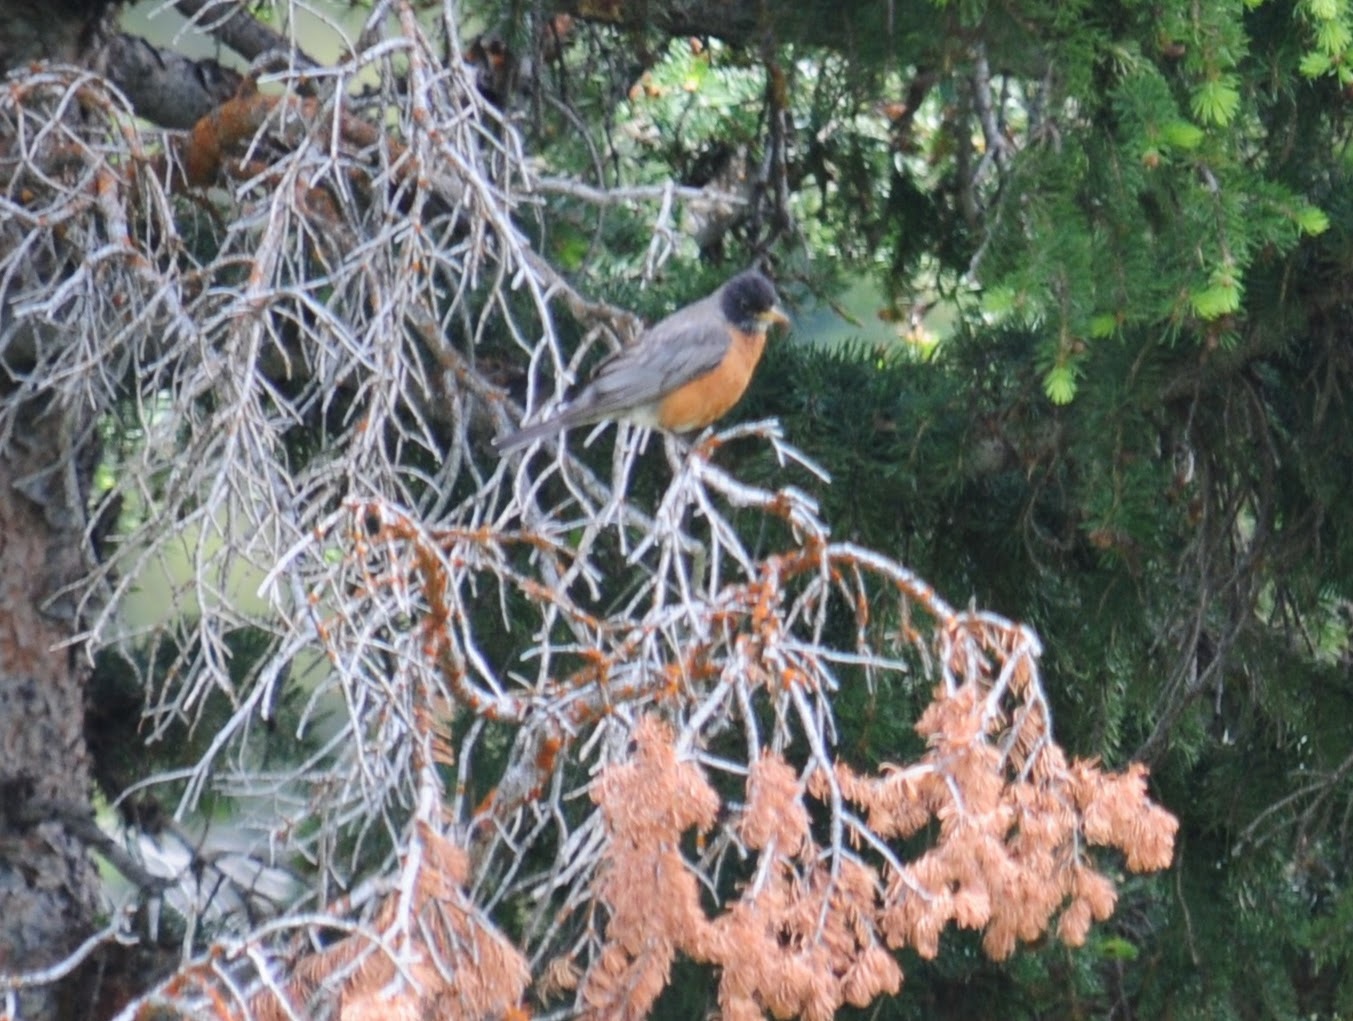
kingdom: Animalia
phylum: Chordata
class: Aves
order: Passeriformes
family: Turdidae
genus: Turdus
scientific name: Turdus migratorius
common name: American robin
